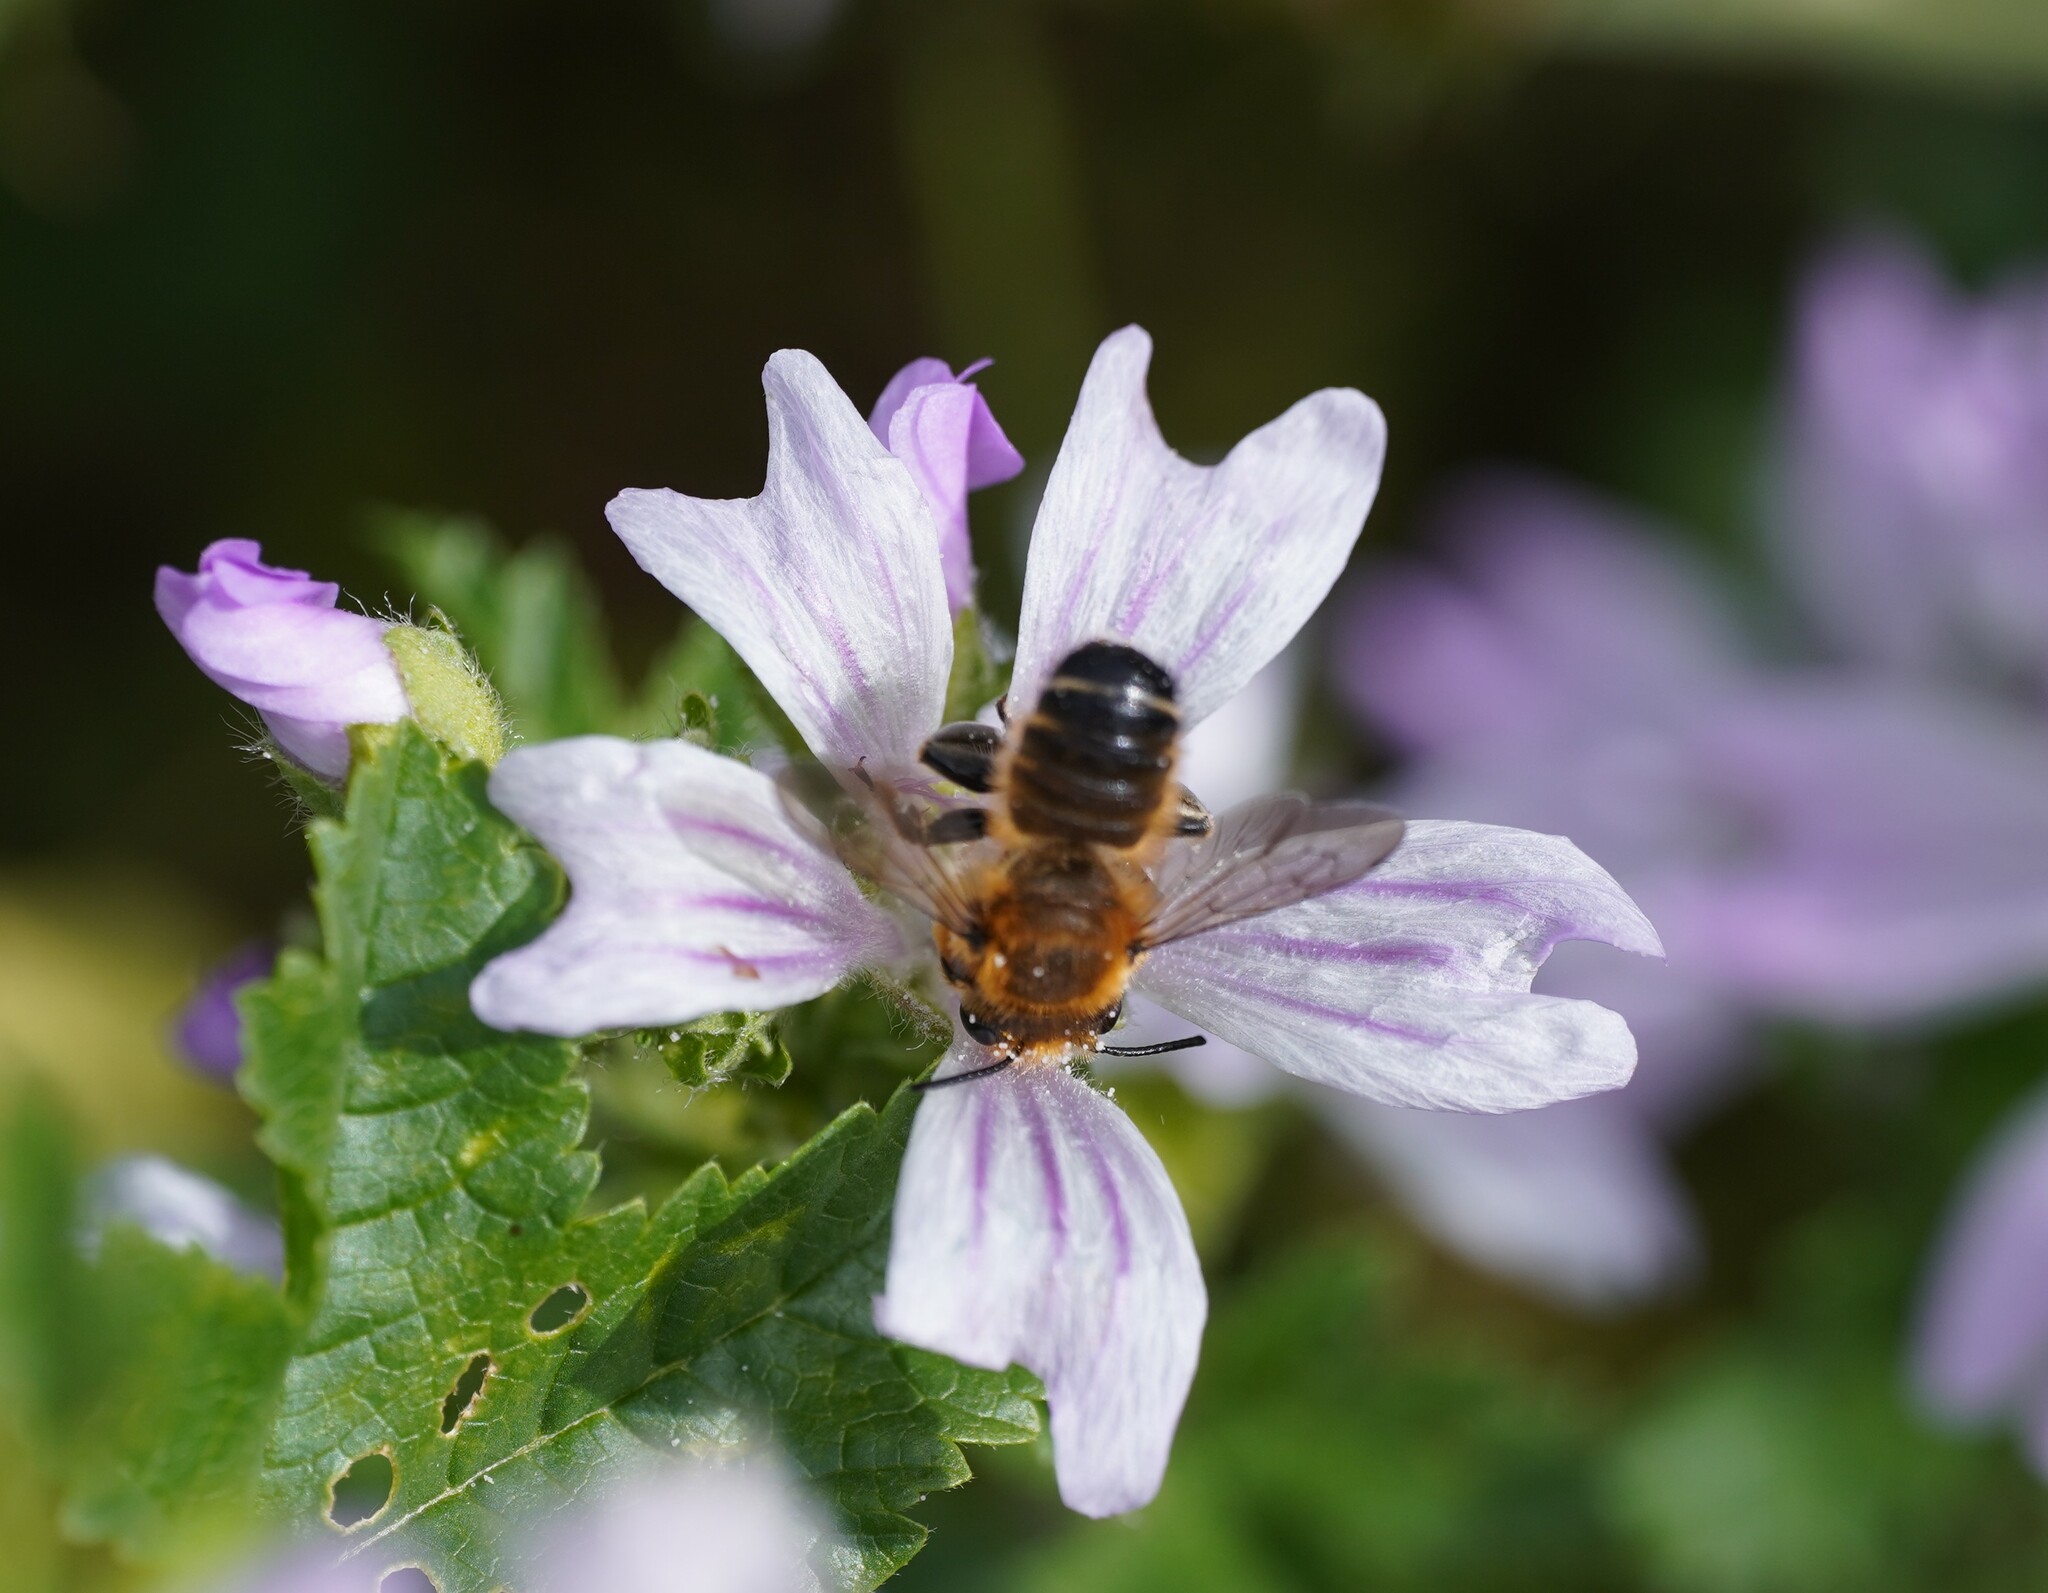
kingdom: Animalia
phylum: Arthropoda
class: Insecta
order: Hymenoptera
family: Megachilidae
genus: Megachile
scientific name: Megachile willughbiella
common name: Willughby's leafcutter bee
